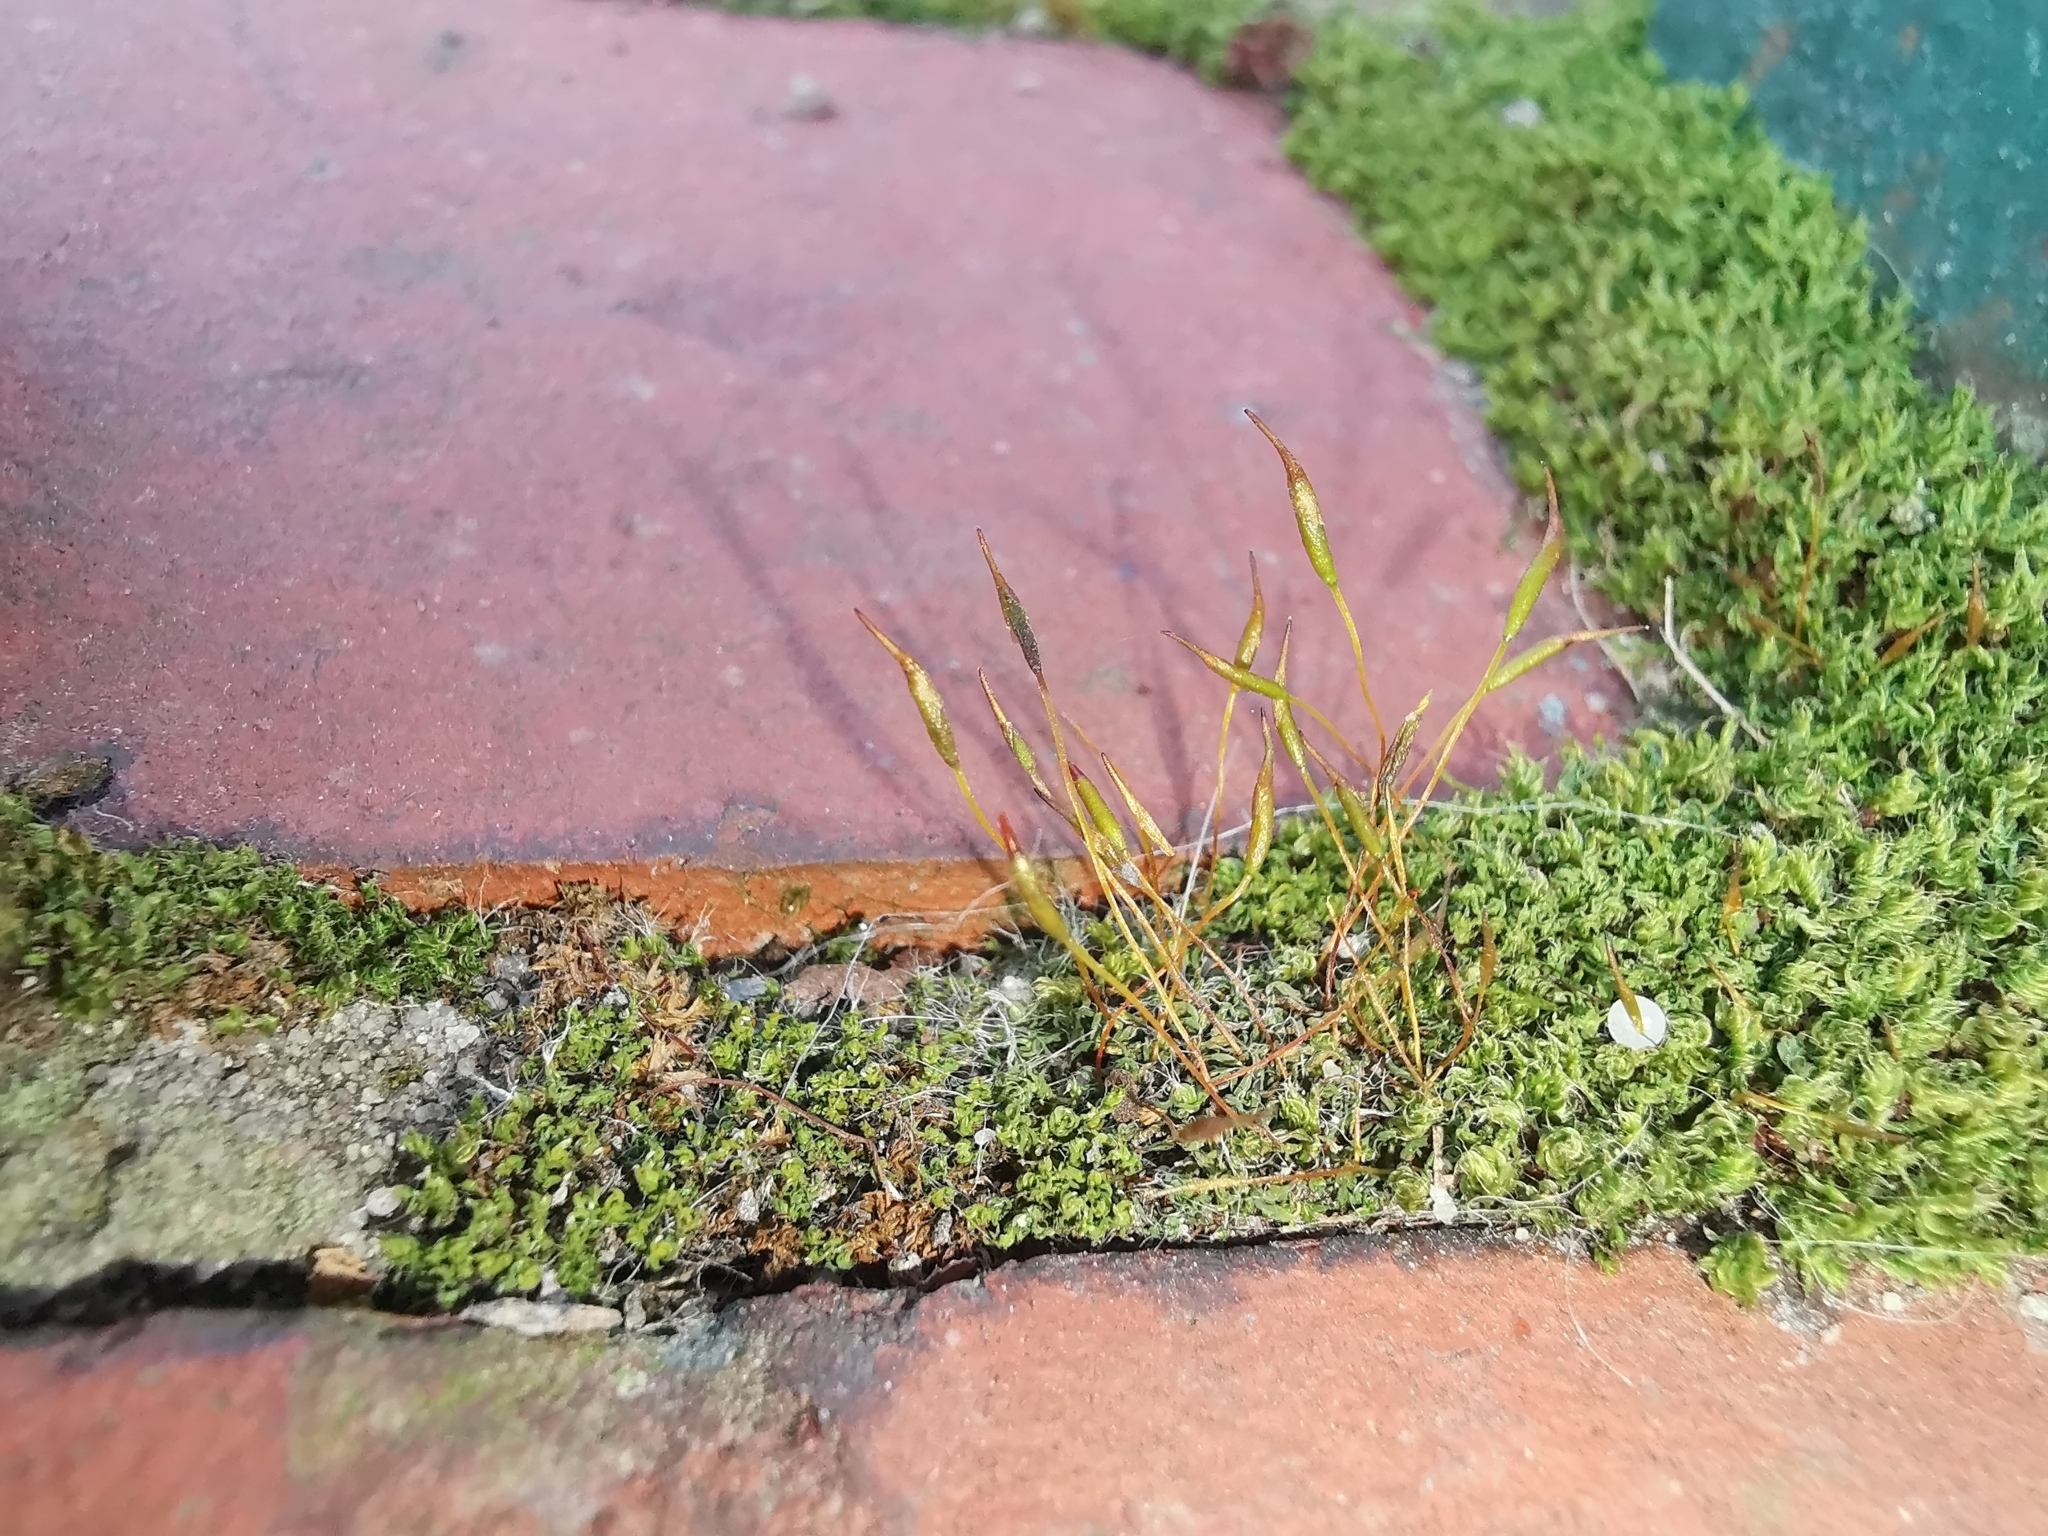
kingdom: Plantae
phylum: Bryophyta
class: Bryopsida
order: Pottiales
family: Pottiaceae
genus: Tortula
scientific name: Tortula muralis
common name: Wall screw-moss
